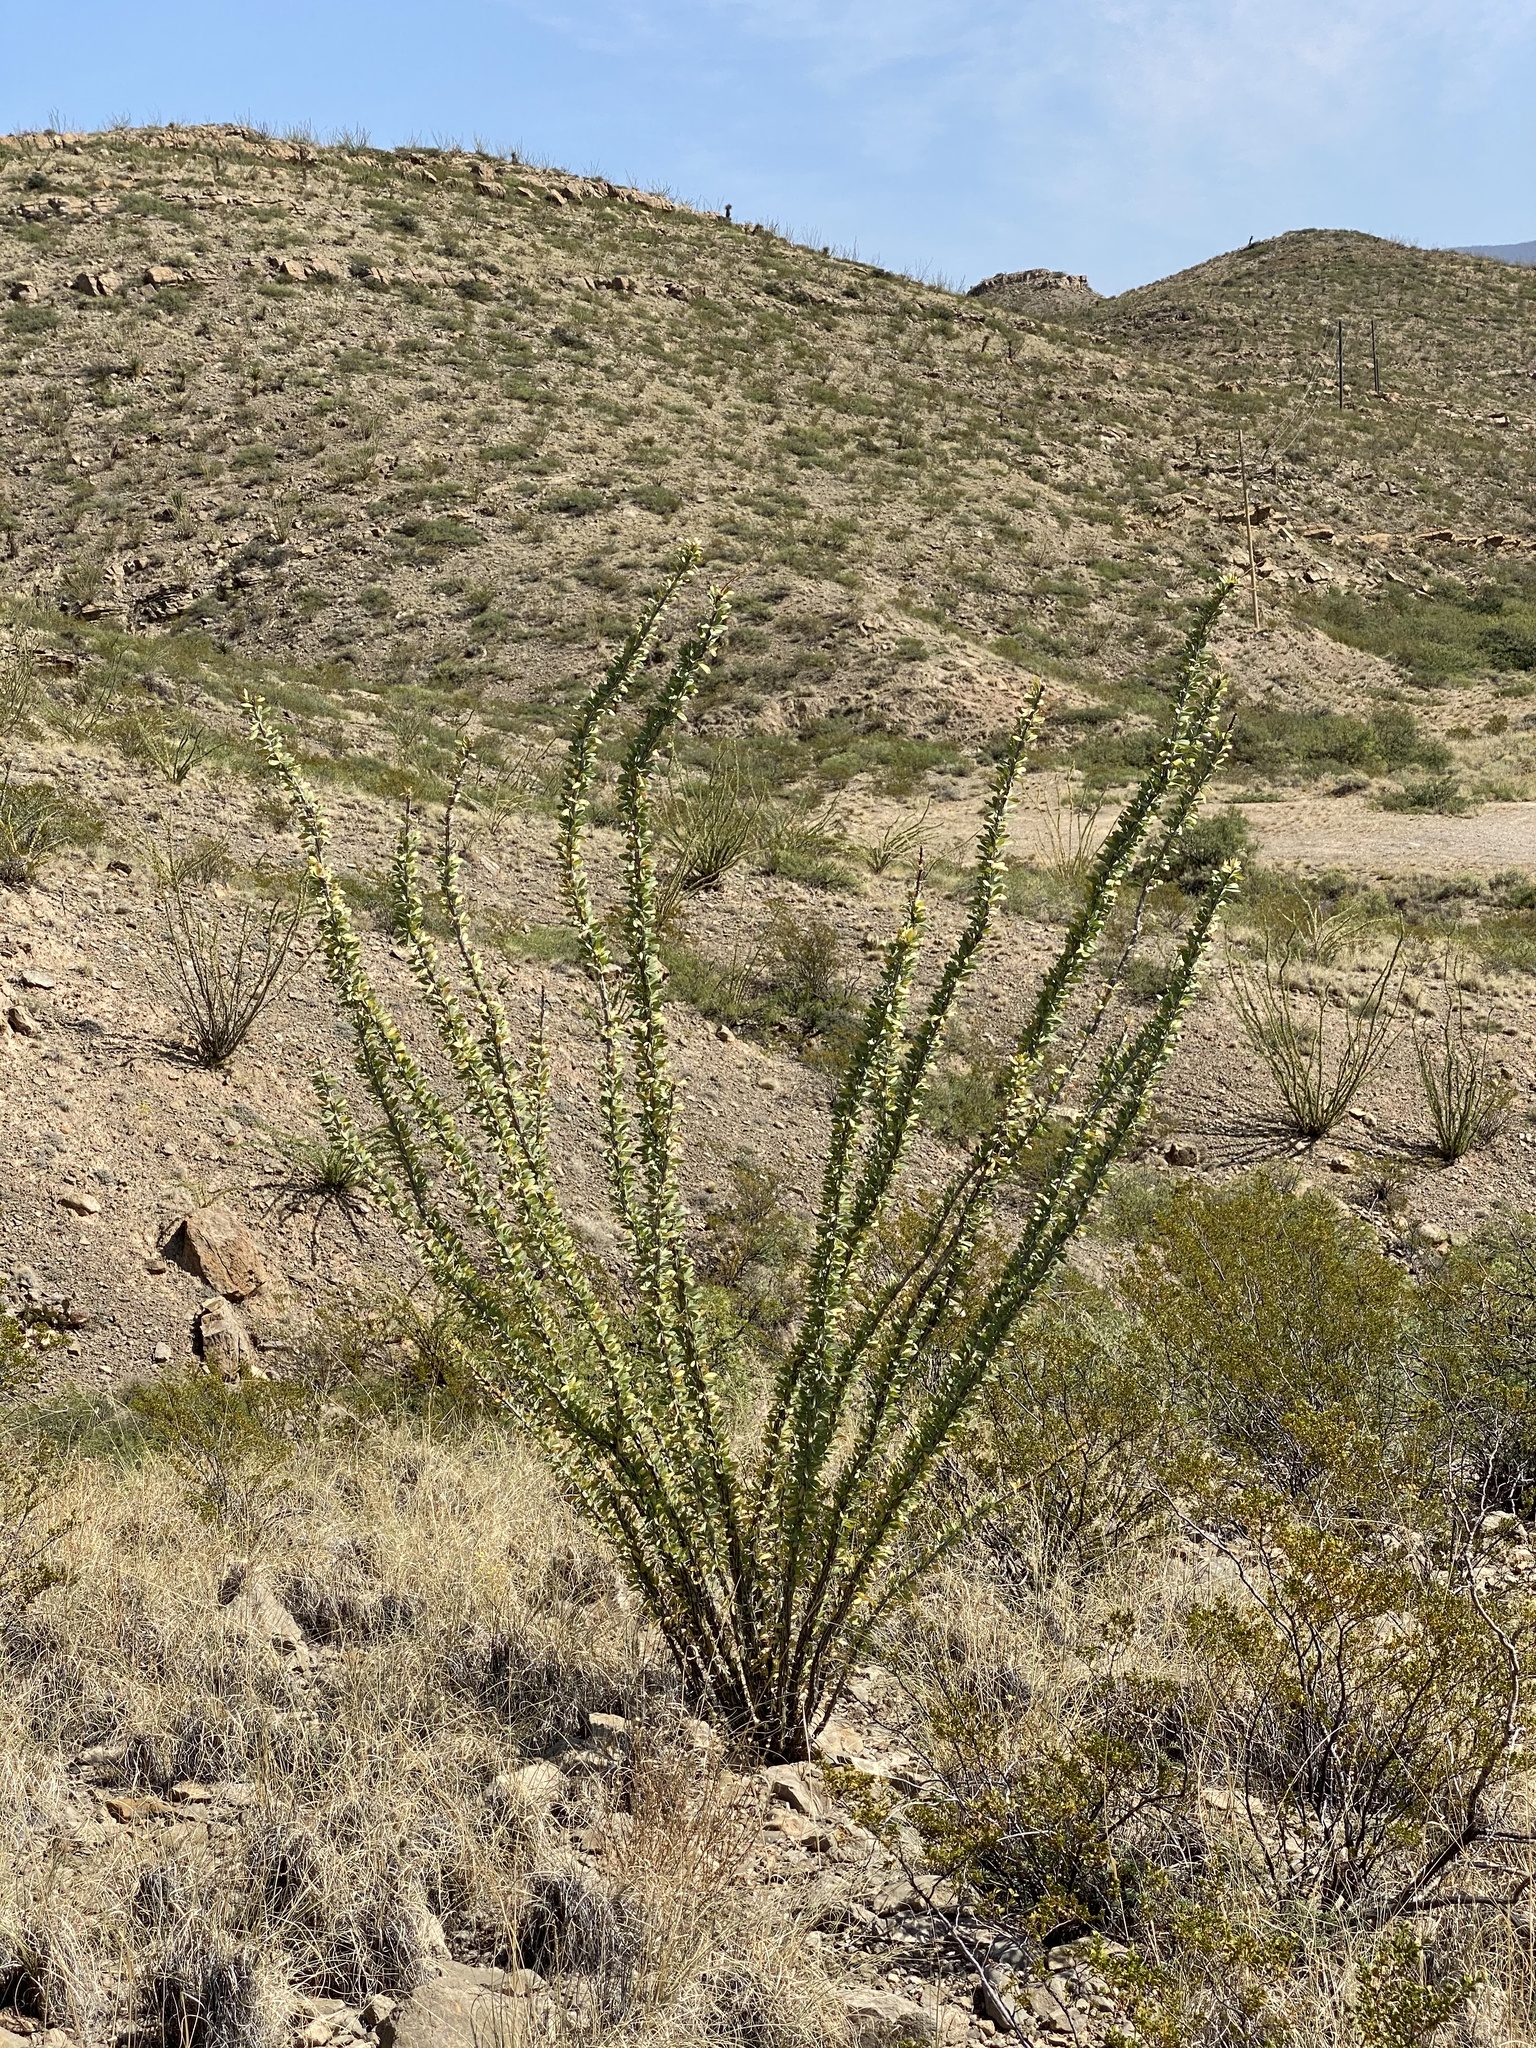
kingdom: Plantae
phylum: Tracheophyta
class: Magnoliopsida
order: Ericales
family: Fouquieriaceae
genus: Fouquieria
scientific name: Fouquieria splendens
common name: Vine-cactus
